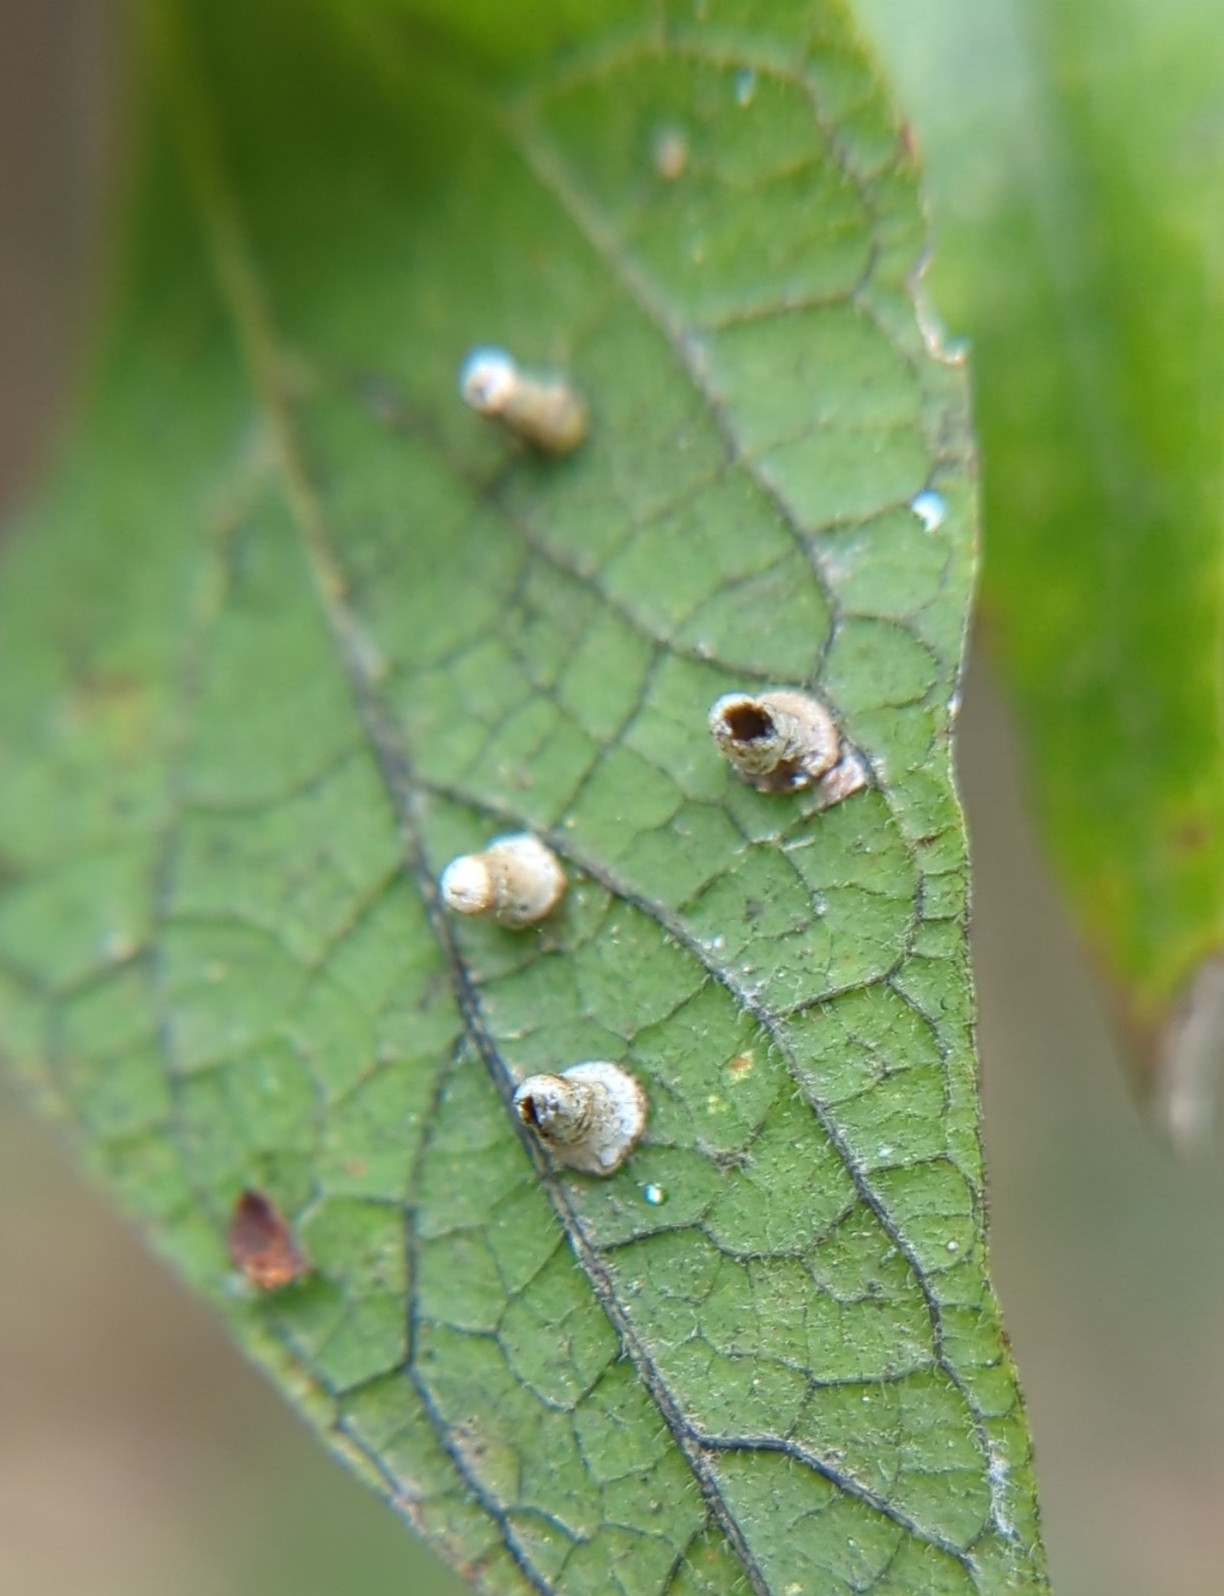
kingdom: Animalia
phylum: Arthropoda
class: Insecta
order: Diptera
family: Cecidomyiidae
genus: Celticecis
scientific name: Celticecis aciculata
